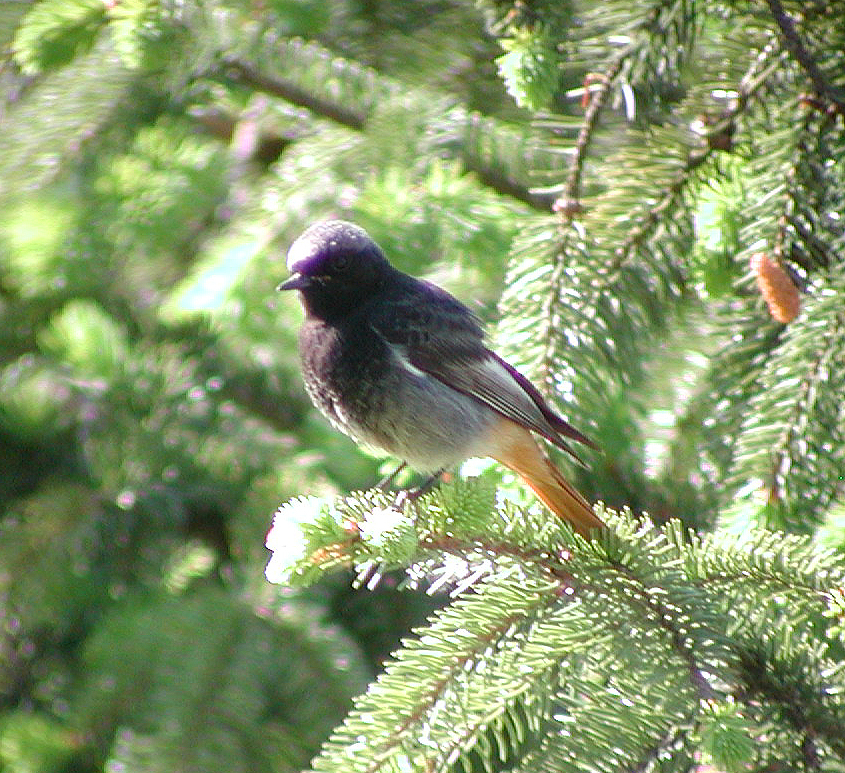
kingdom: Animalia
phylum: Chordata
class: Aves
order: Passeriformes
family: Muscicapidae
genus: Phoenicurus
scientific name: Phoenicurus ochruros
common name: Black redstart
